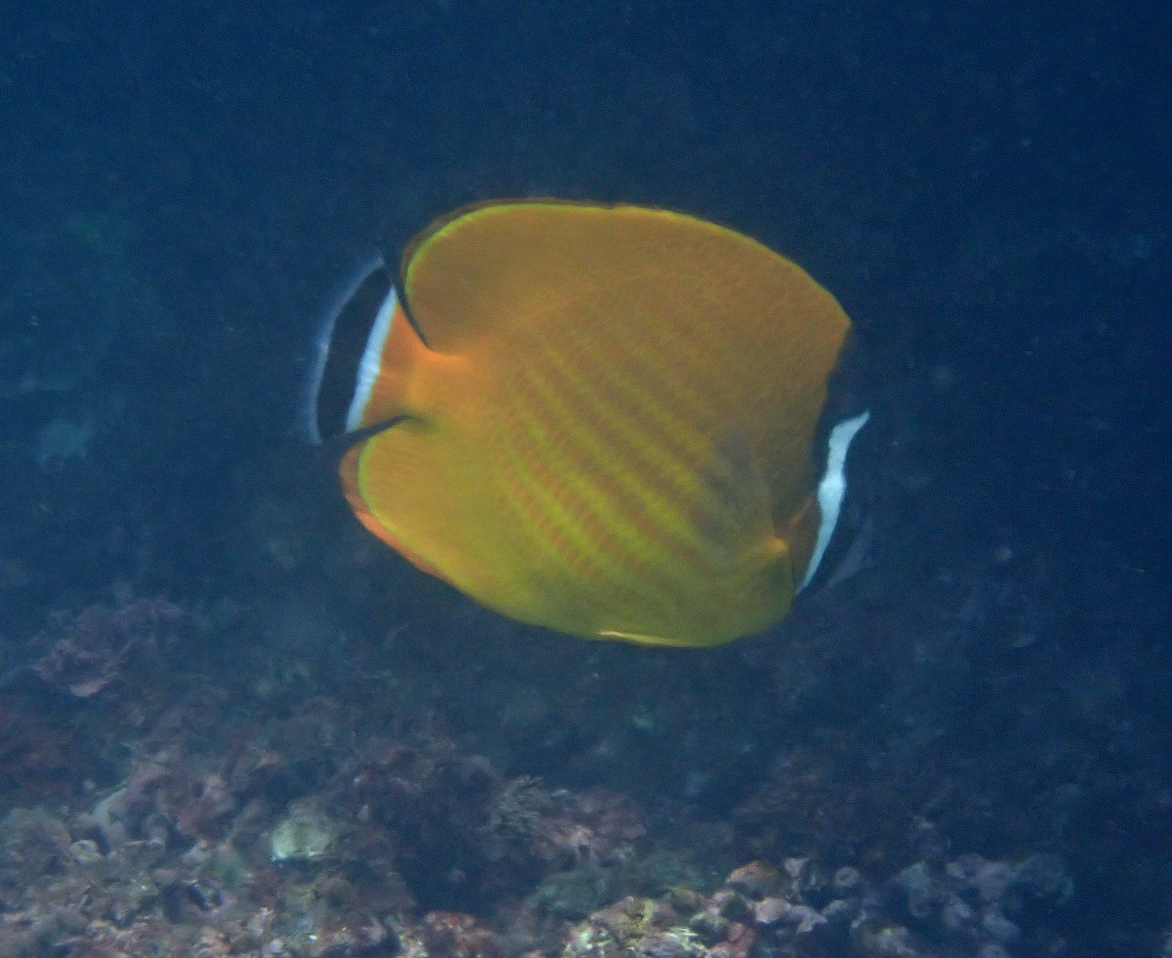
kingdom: Animalia
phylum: Chordata
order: Perciformes
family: Chaetodontidae
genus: Chaetodon
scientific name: Chaetodon wiebeli
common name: Butterflyfish
